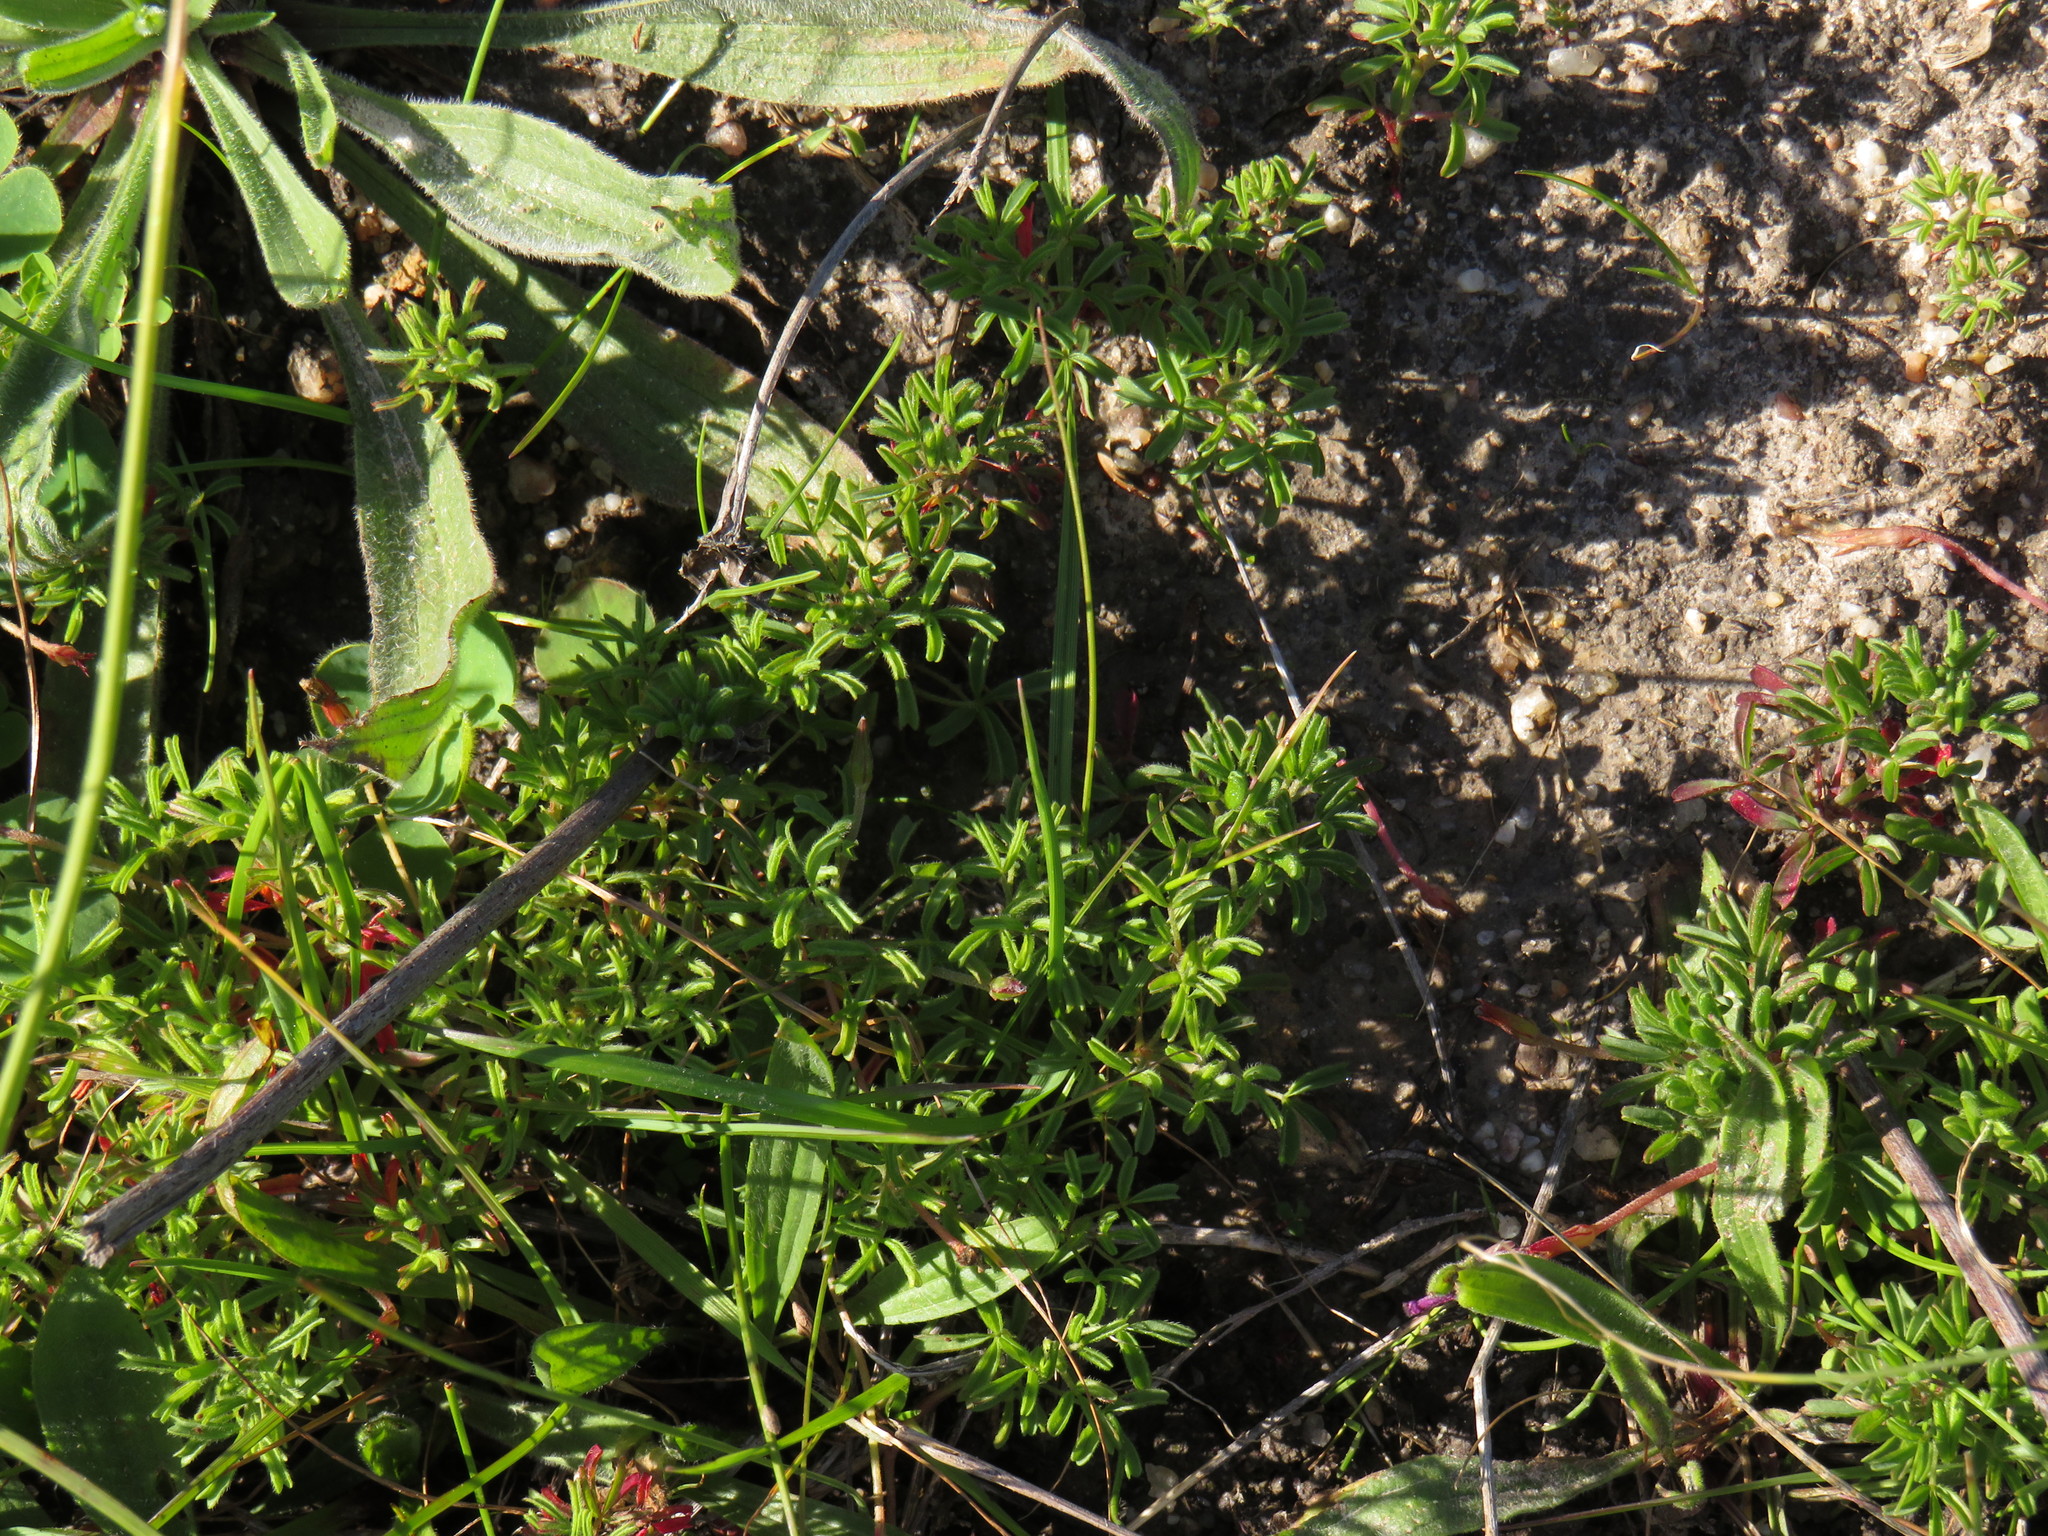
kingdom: Plantae
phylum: Tracheophyta
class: Magnoliopsida
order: Oxalidales
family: Oxalidaceae
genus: Oxalis
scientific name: Oxalis glabra
